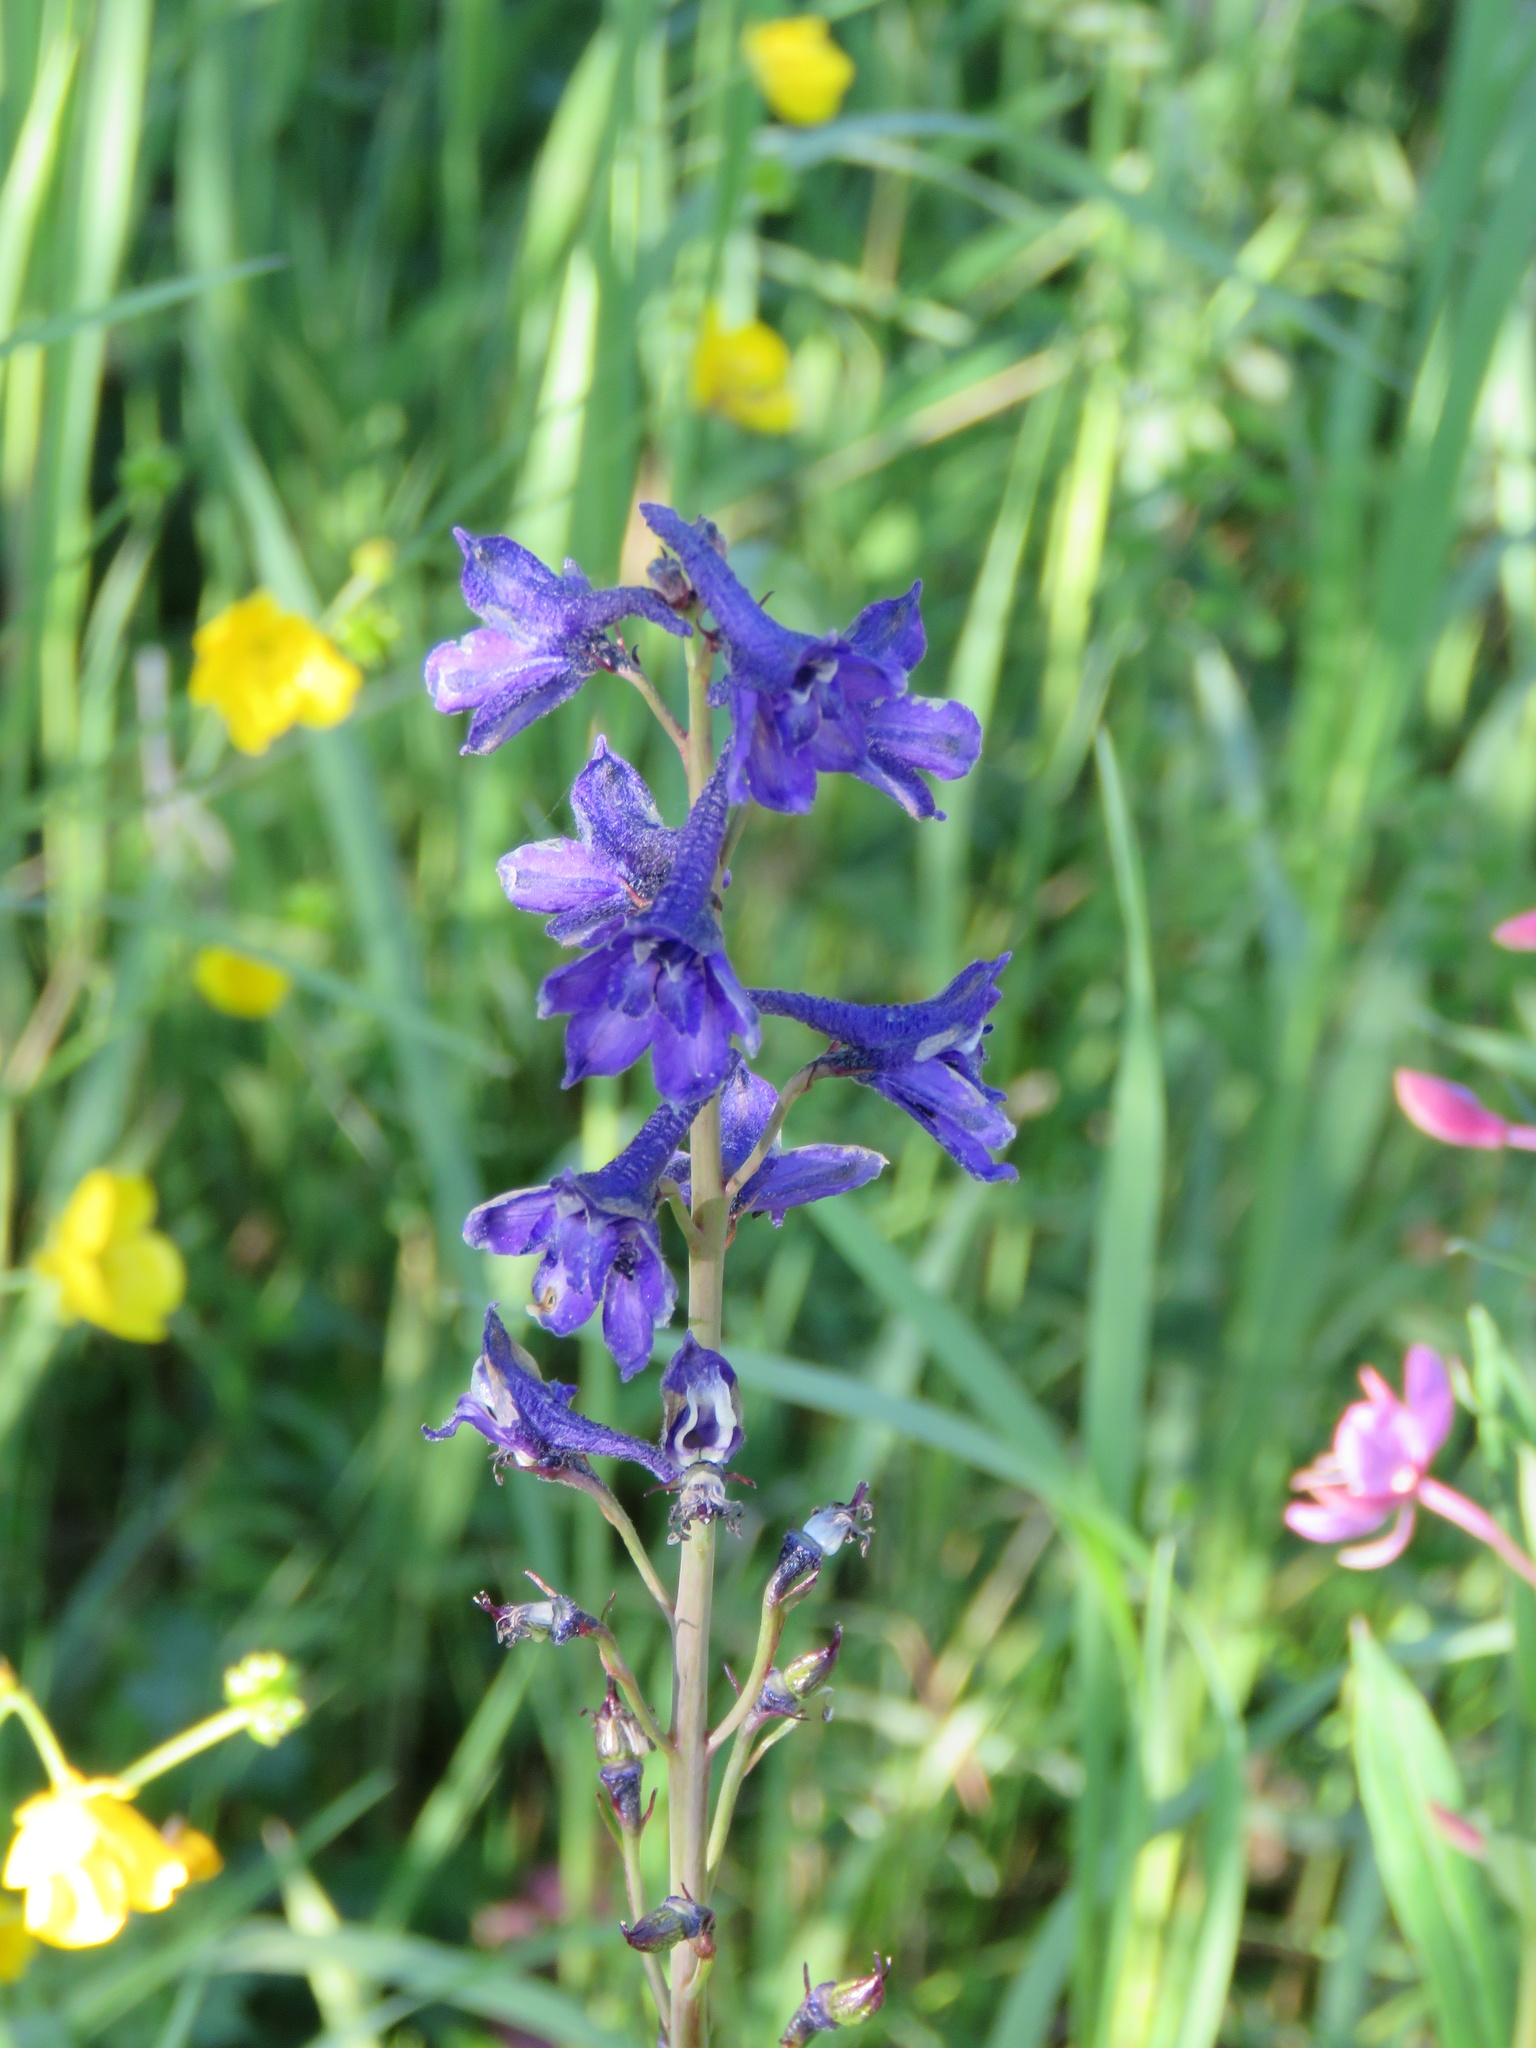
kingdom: Plantae
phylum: Tracheophyta
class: Magnoliopsida
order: Ranunculales
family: Ranunculaceae
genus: Delphinium
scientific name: Delphinium glaucum
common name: Brown's larkspur
